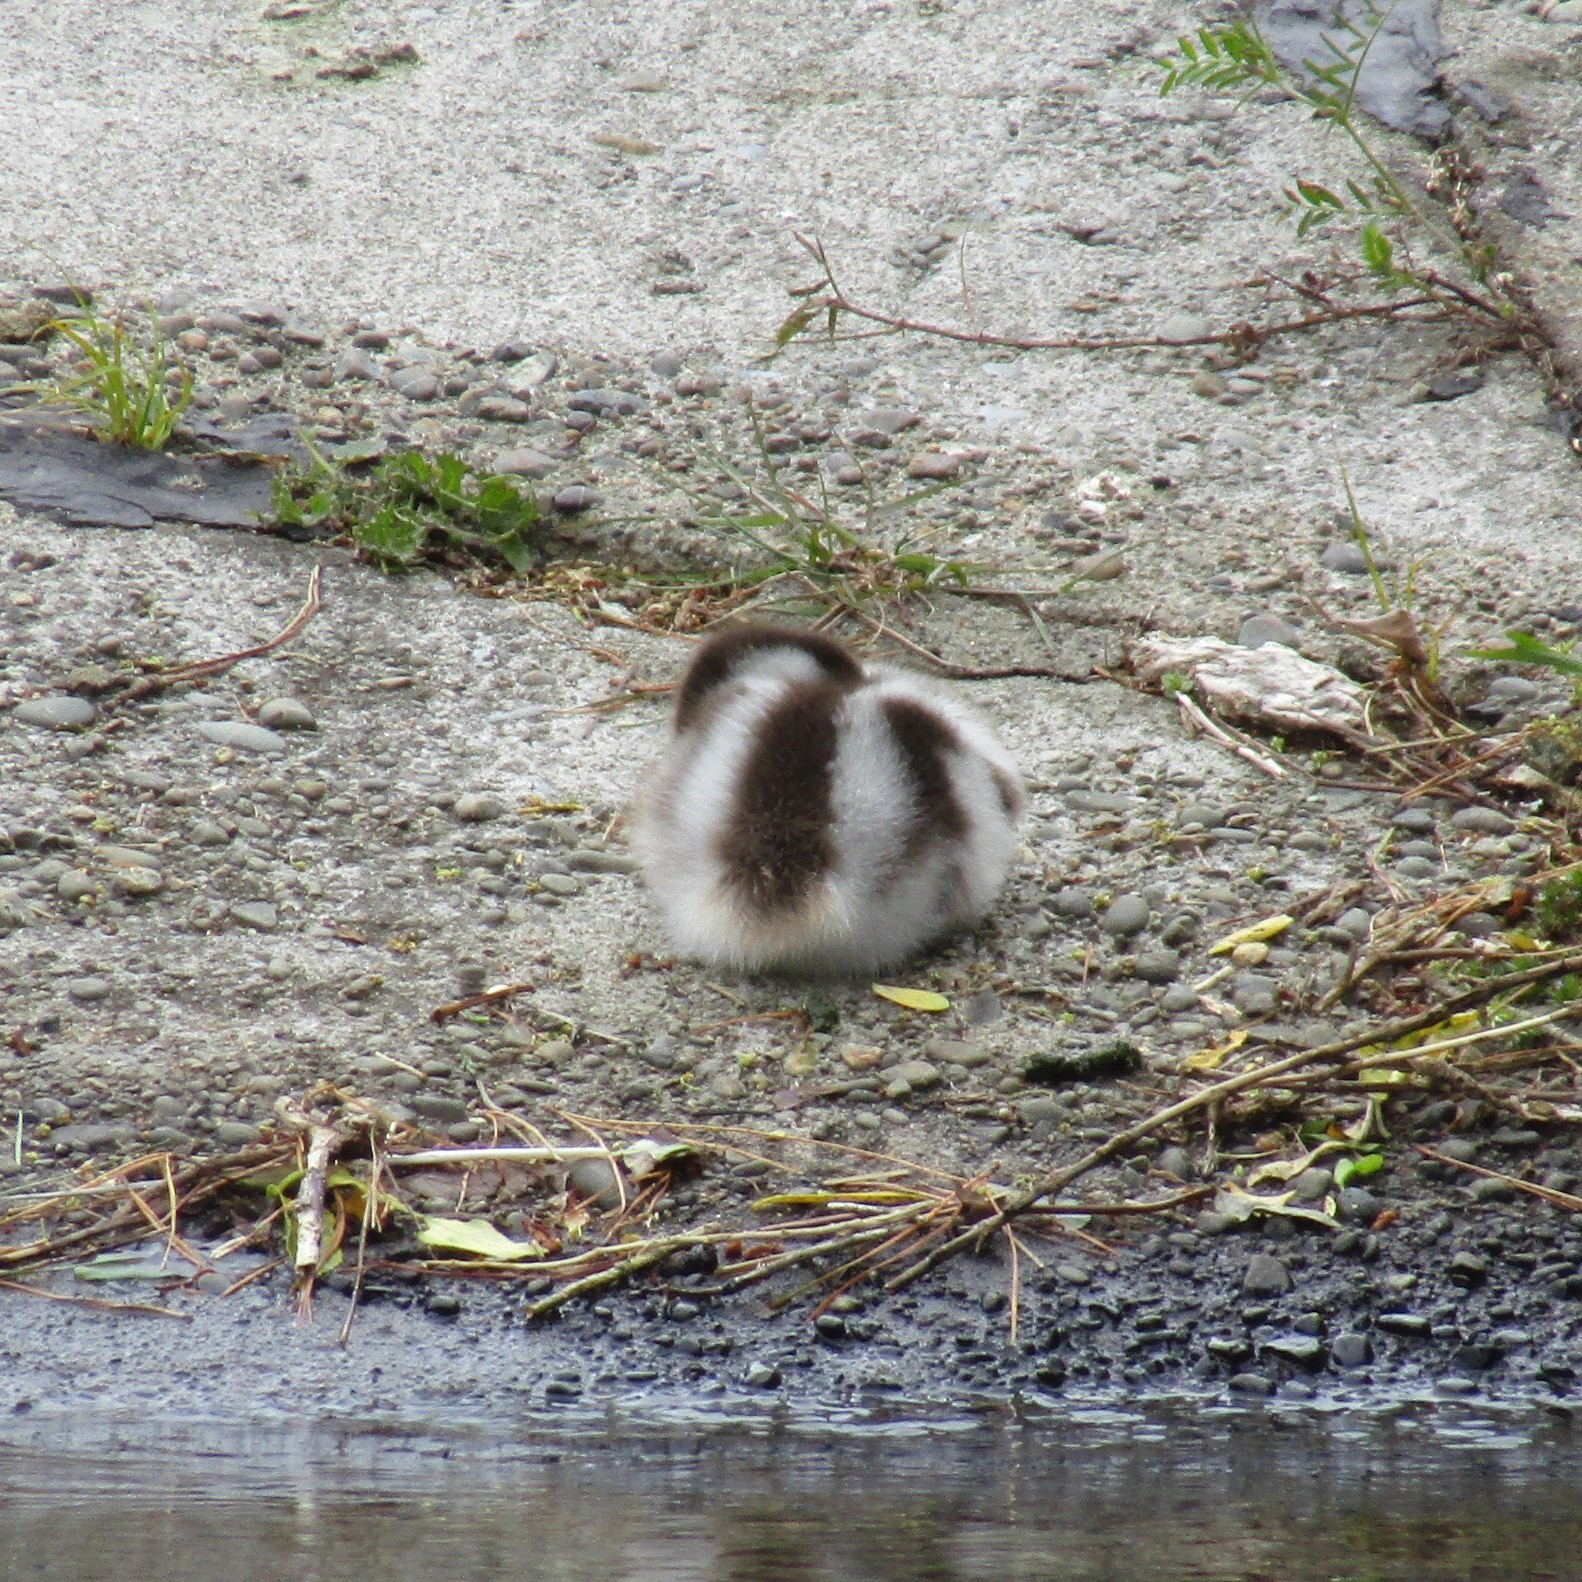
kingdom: Animalia
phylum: Chordata
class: Aves
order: Anseriformes
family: Anatidae
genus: Tadorna
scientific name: Tadorna variegata
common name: Paradise shelduck
